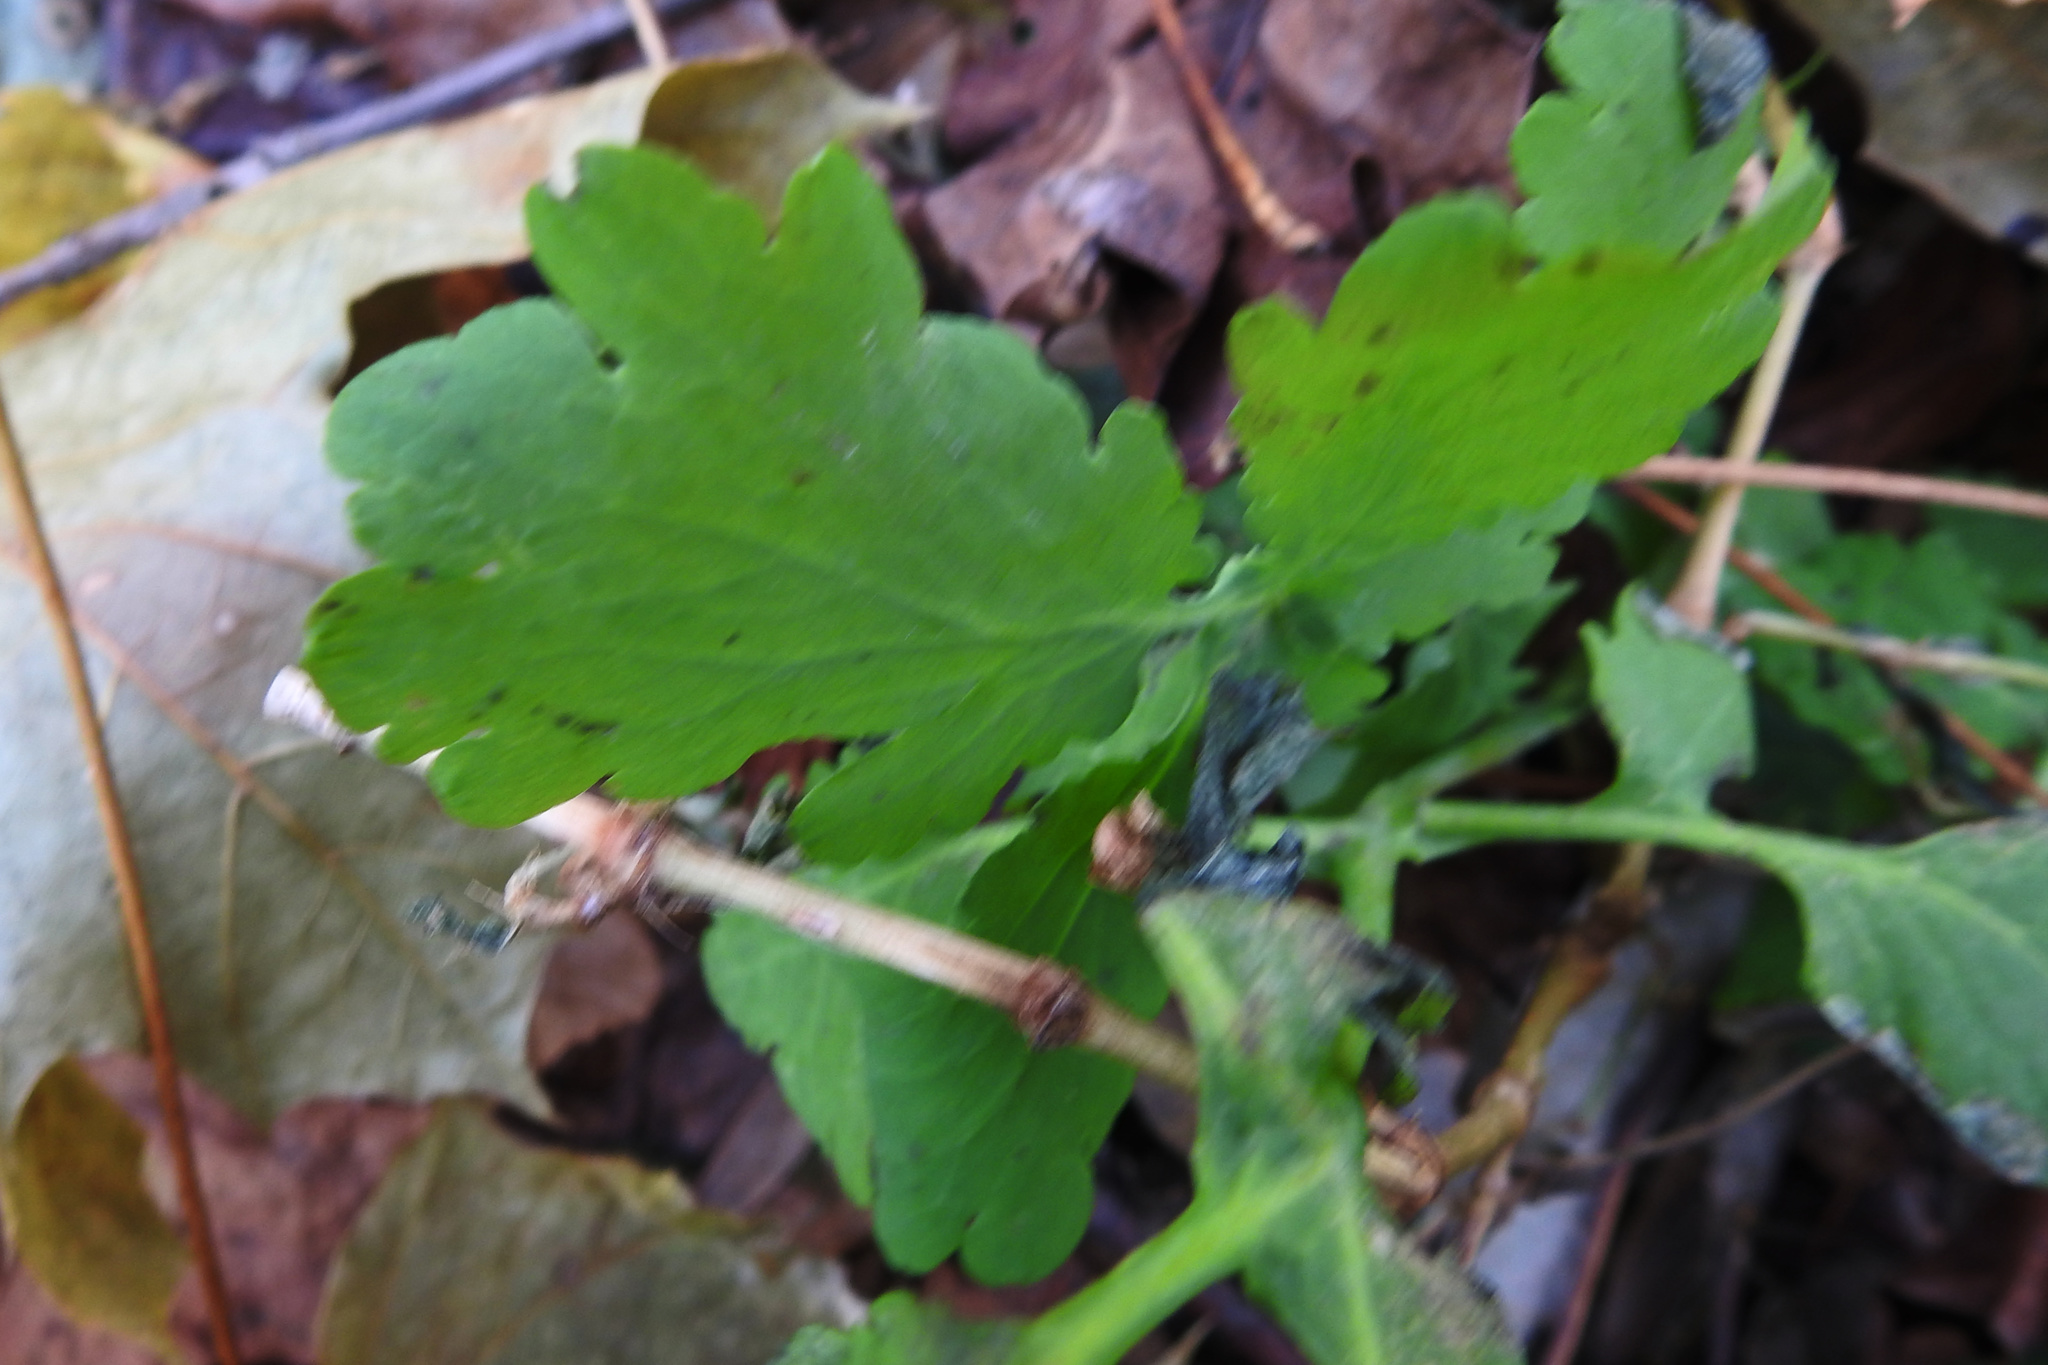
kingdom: Plantae
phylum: Tracheophyta
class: Magnoliopsida
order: Ranunculales
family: Papaveraceae
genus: Chelidonium
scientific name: Chelidonium majus
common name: Greater celandine
